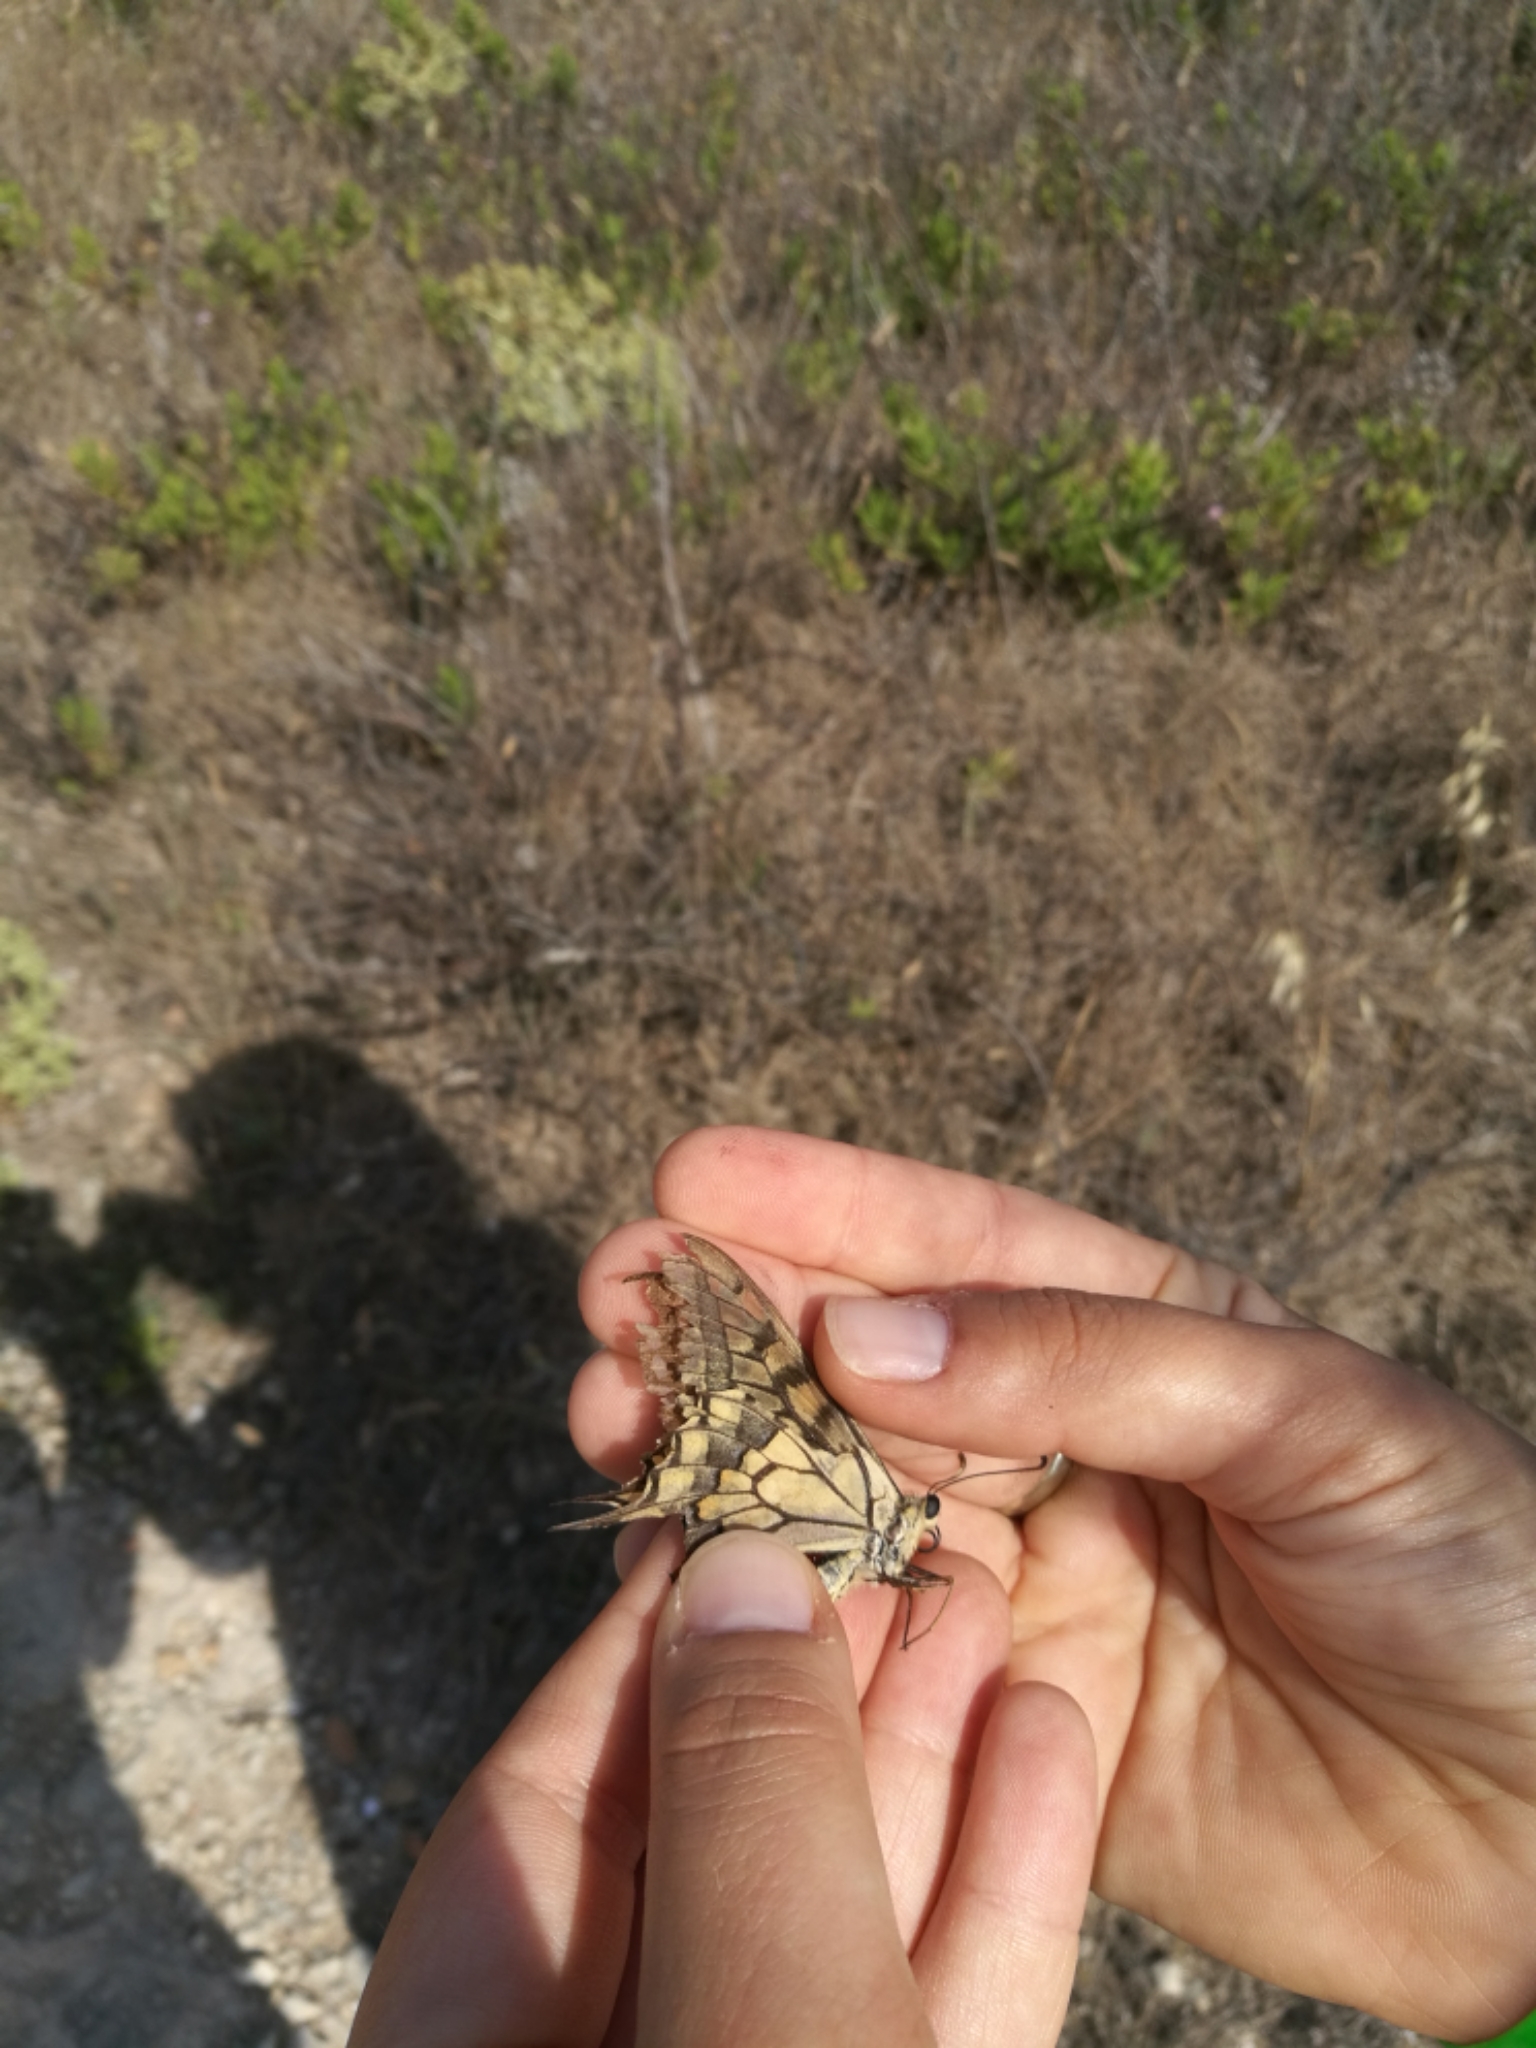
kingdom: Animalia
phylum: Arthropoda
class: Insecta
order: Lepidoptera
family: Papilionidae
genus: Papilio
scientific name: Papilio machaon
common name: Swallowtail
